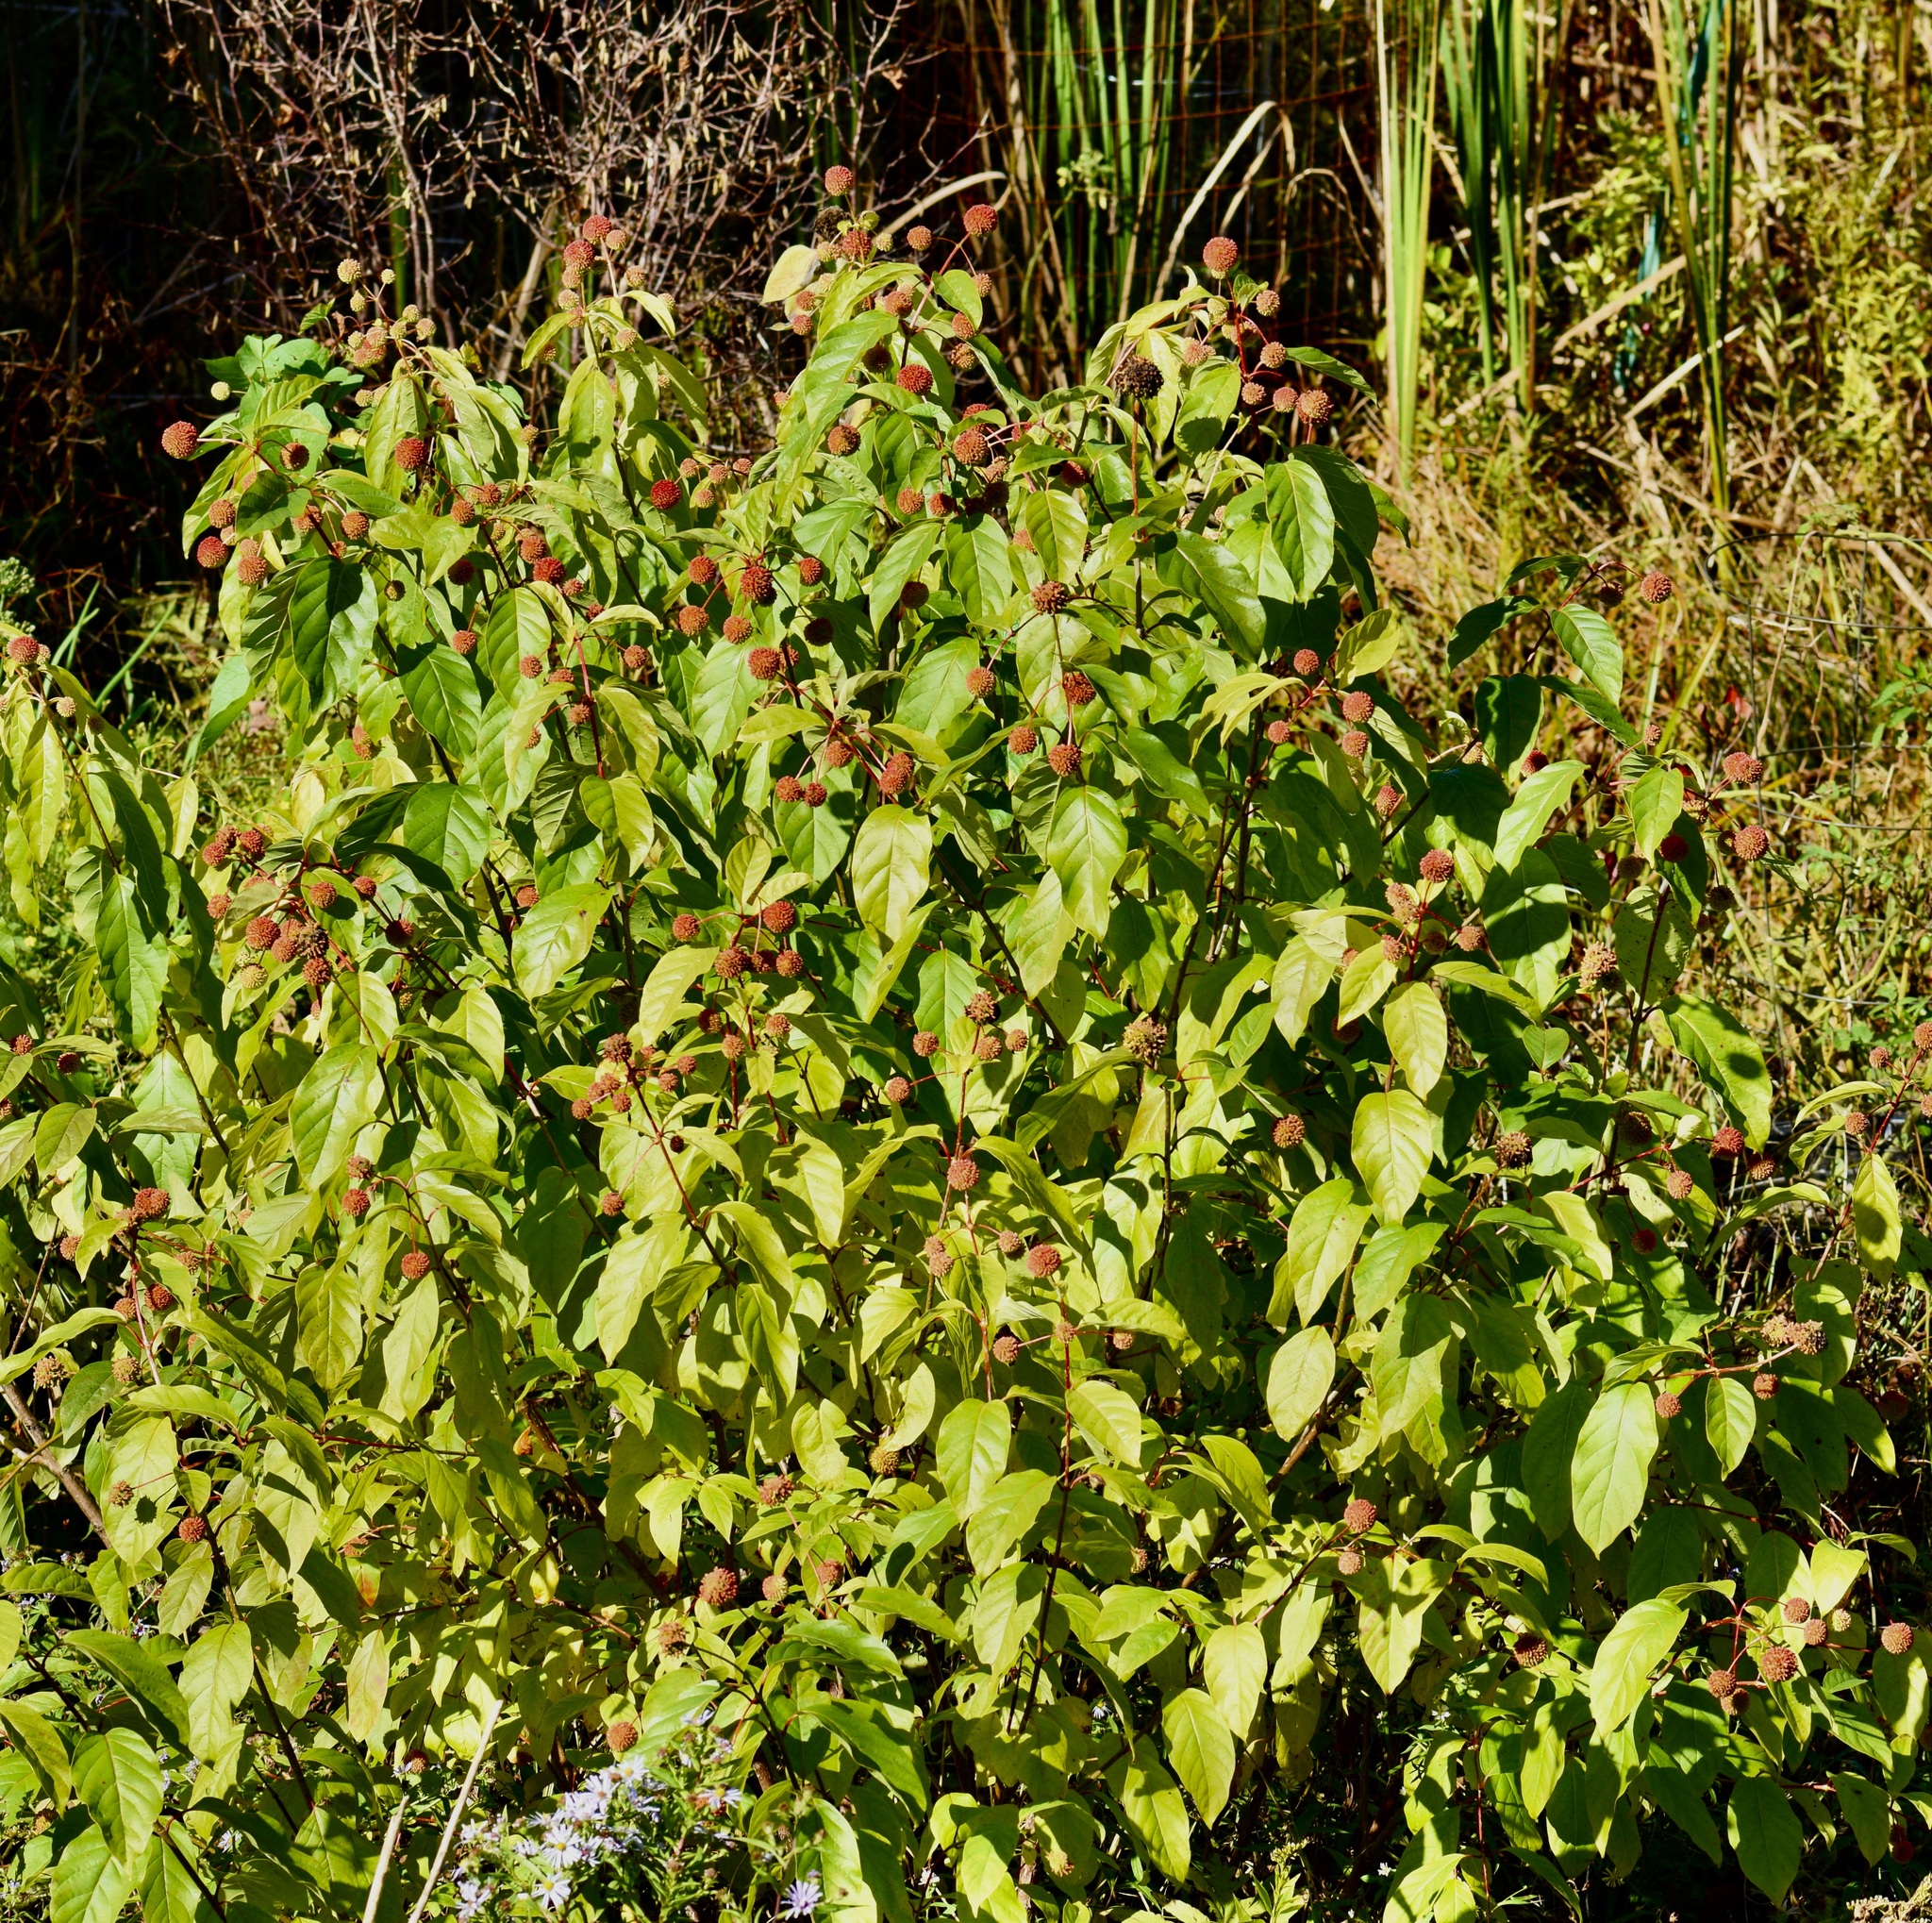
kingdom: Plantae
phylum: Tracheophyta
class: Magnoliopsida
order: Gentianales
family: Rubiaceae
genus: Cephalanthus
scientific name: Cephalanthus occidentalis
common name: Button-willow
